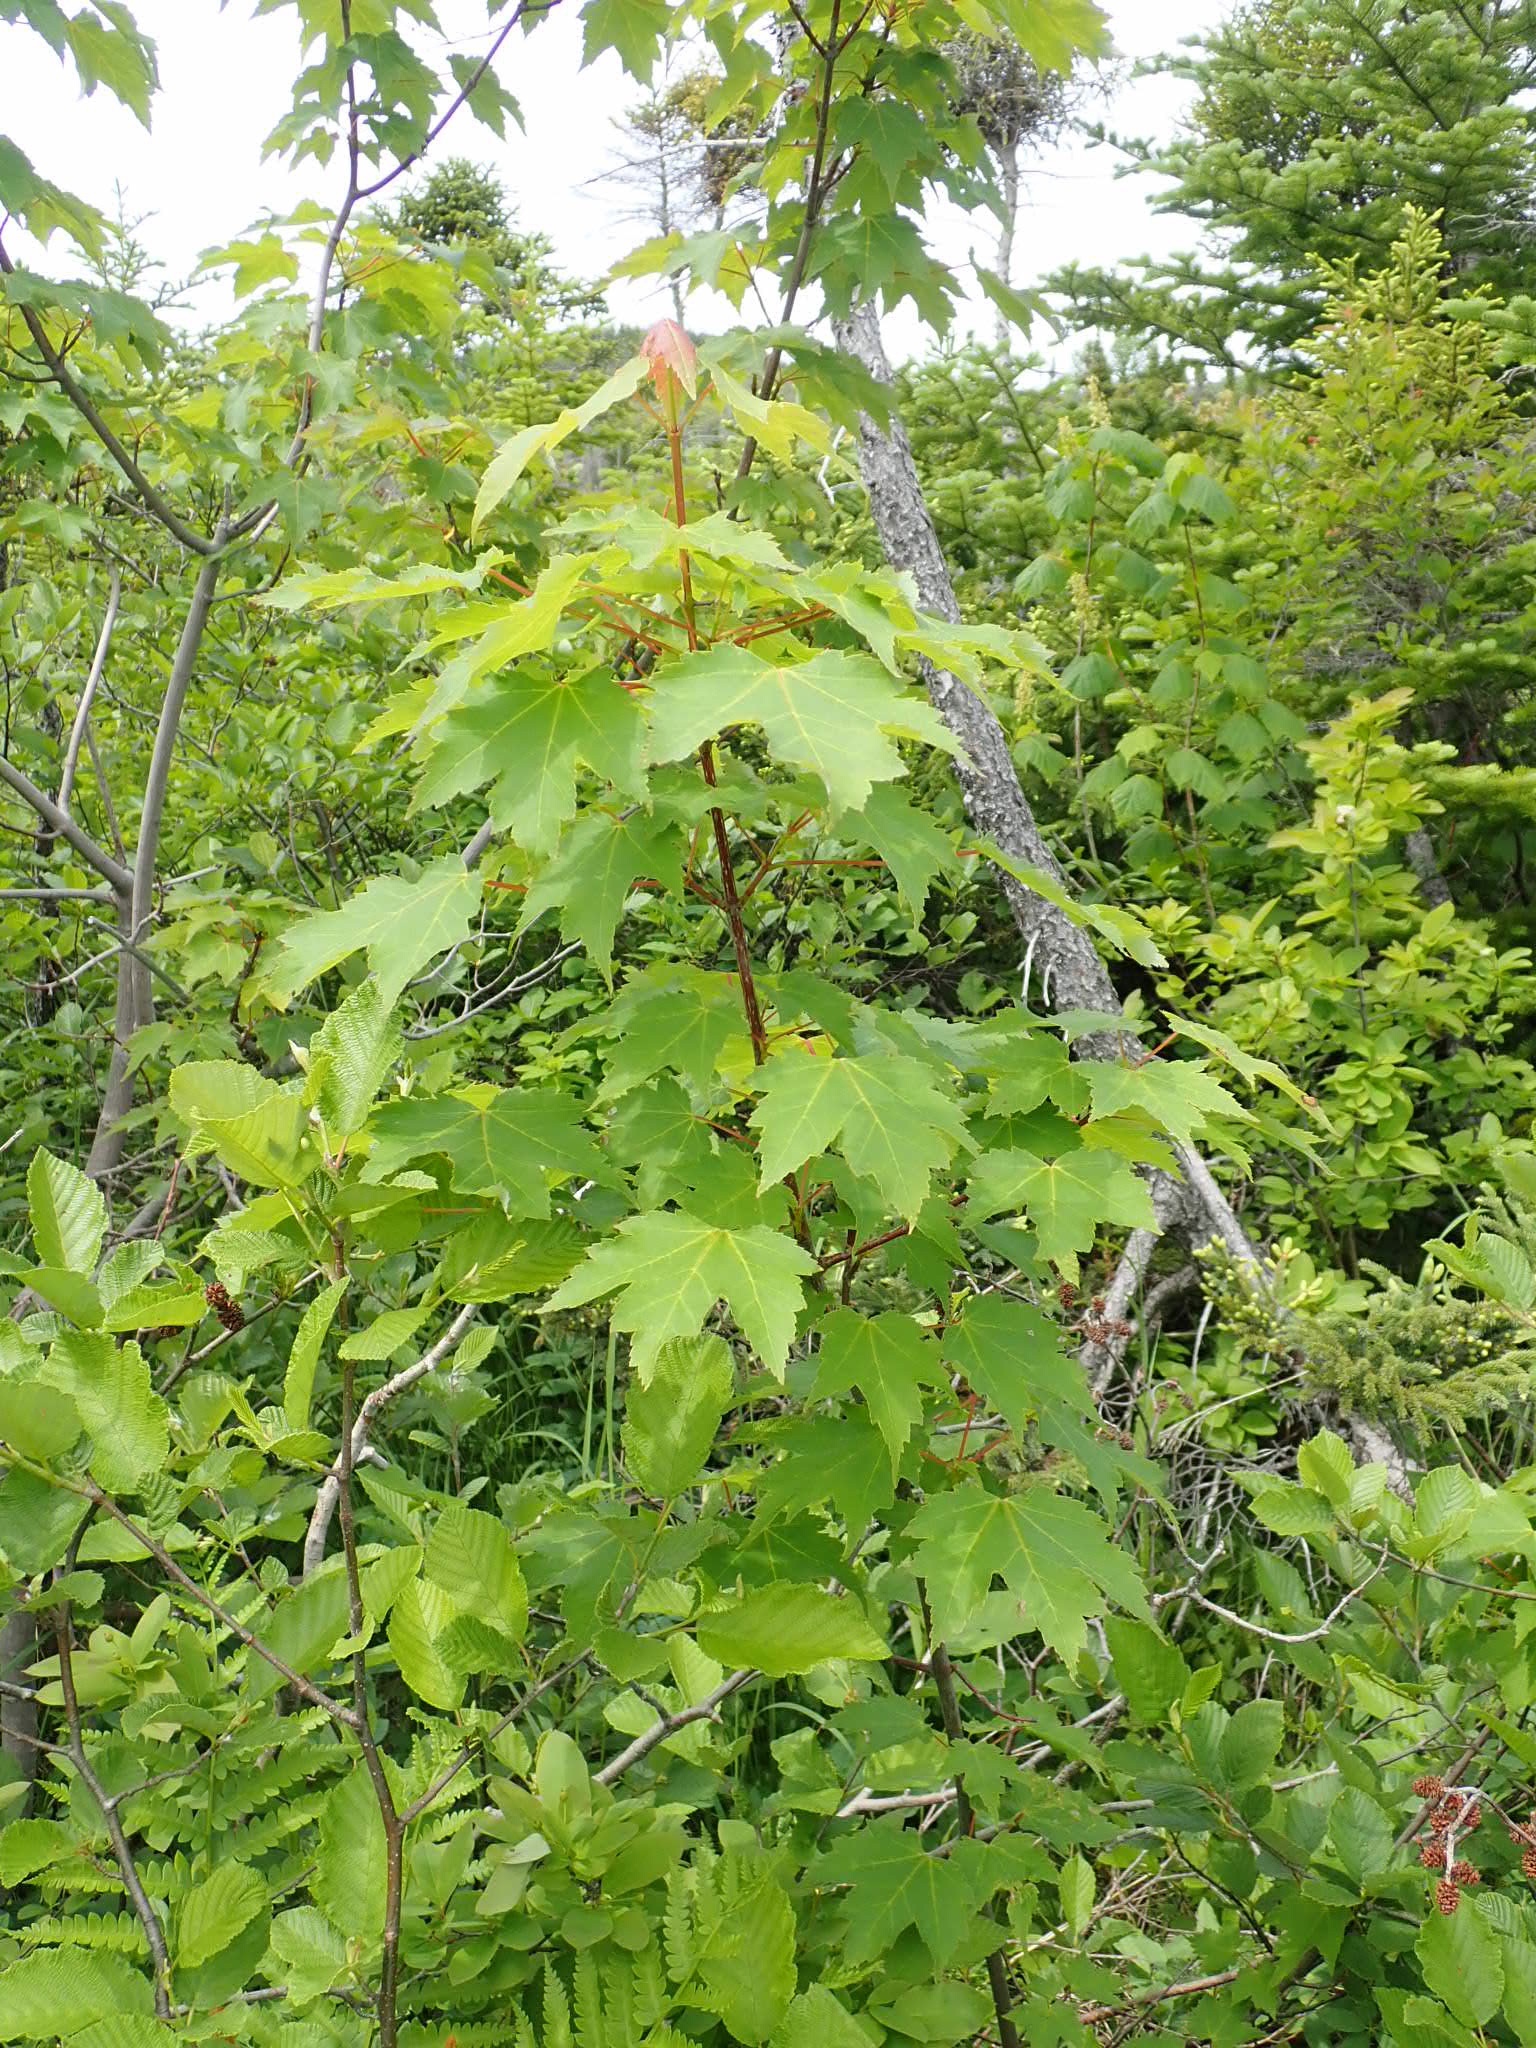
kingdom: Plantae
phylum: Tracheophyta
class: Magnoliopsida
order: Sapindales
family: Sapindaceae
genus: Acer
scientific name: Acer rubrum
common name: Red maple
